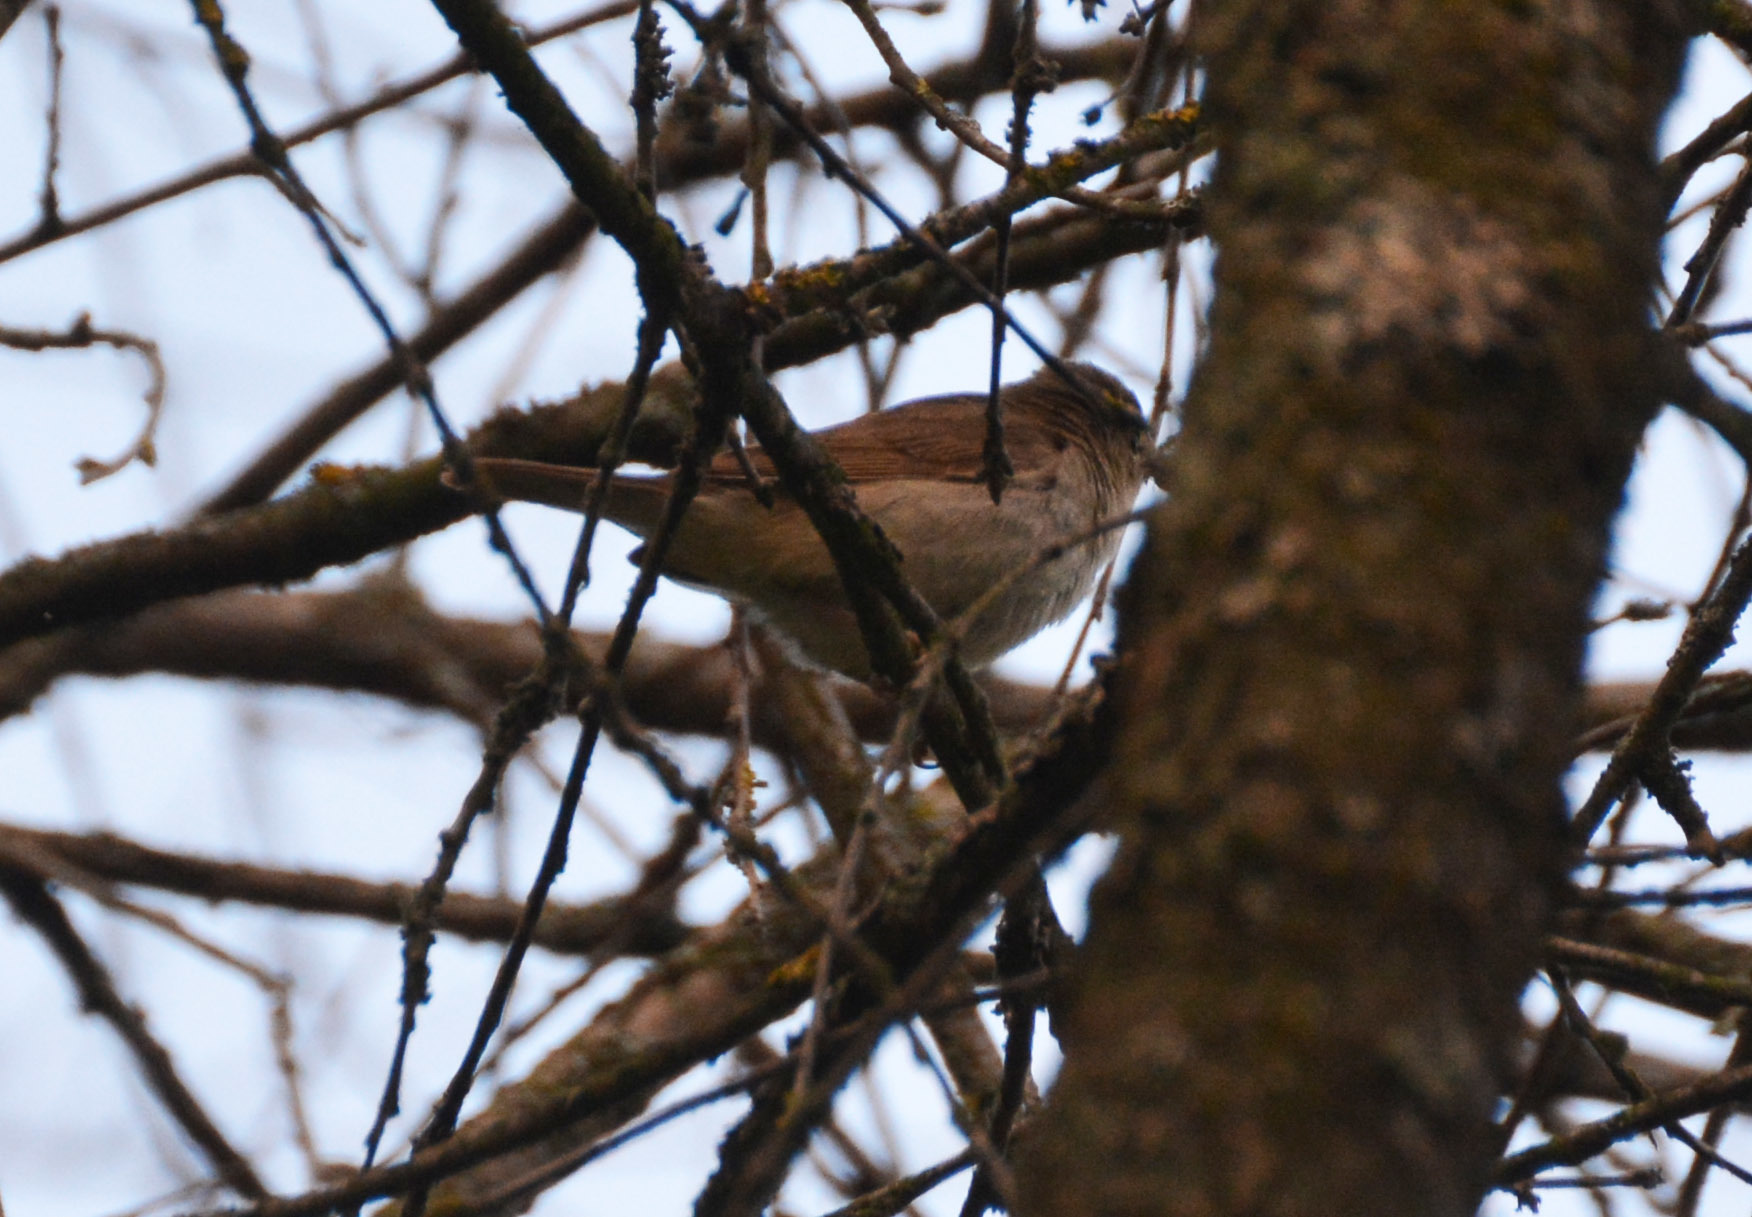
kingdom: Animalia
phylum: Chordata
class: Aves
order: Passeriformes
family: Acrocephalidae
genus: Acrocephalus
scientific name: Acrocephalus dumetorum
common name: Blyth's reed warbler
